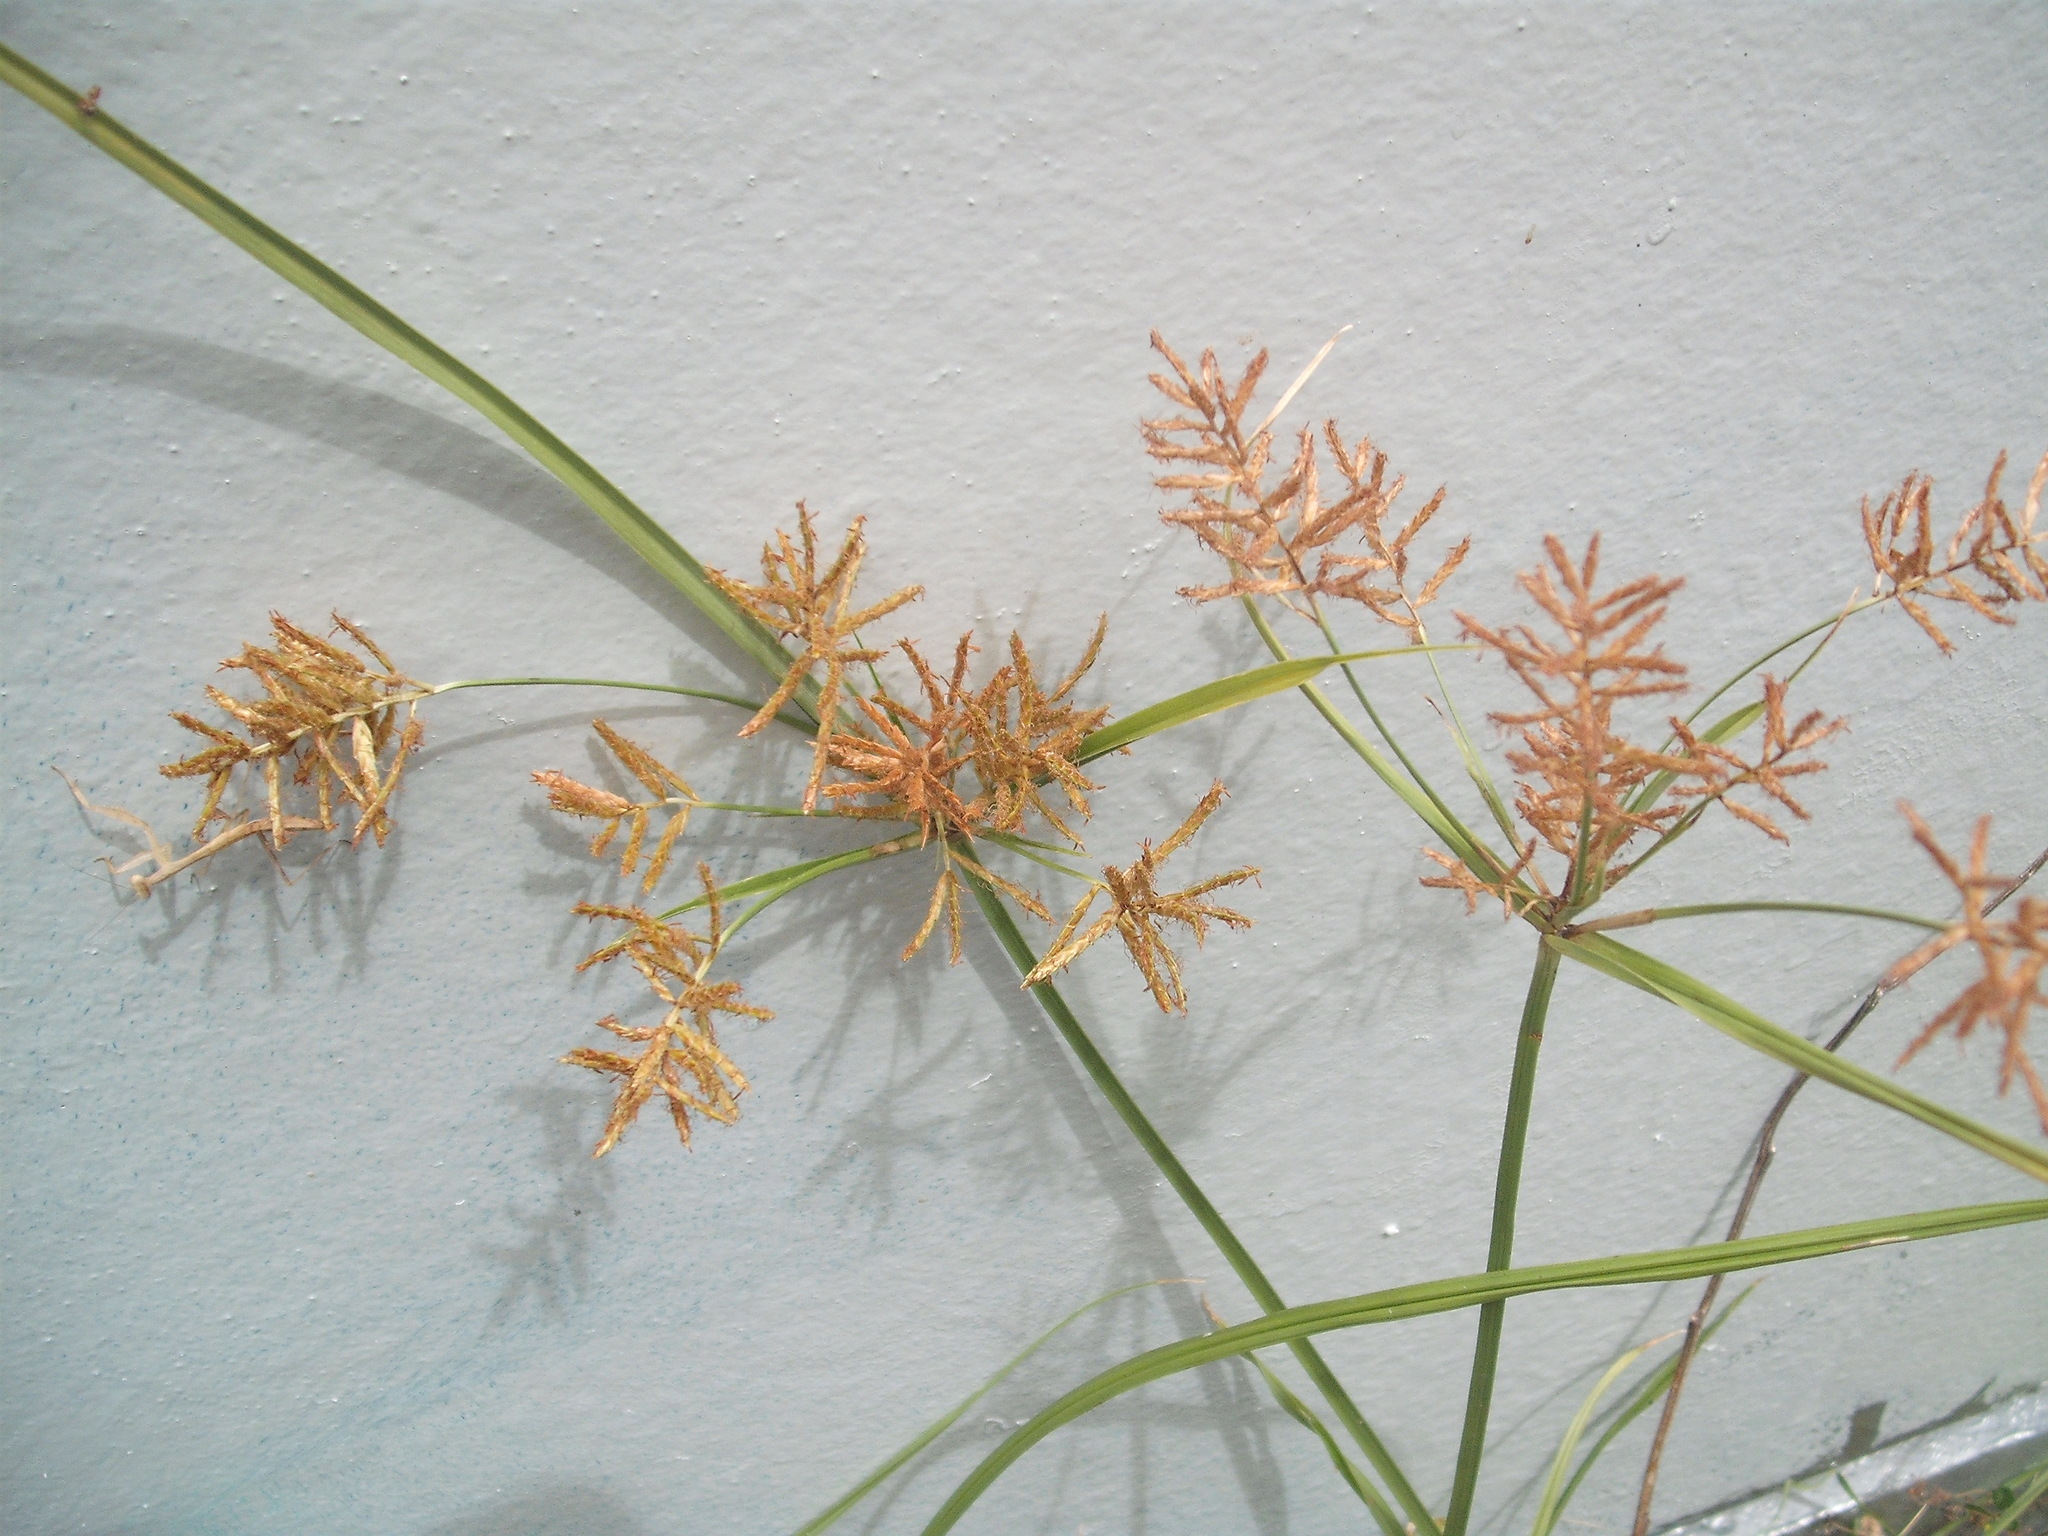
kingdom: Plantae
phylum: Tracheophyta
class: Liliopsida
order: Poales
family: Cyperaceae
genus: Cyperus
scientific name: Cyperus esculentus
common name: Yellow nutsedge
